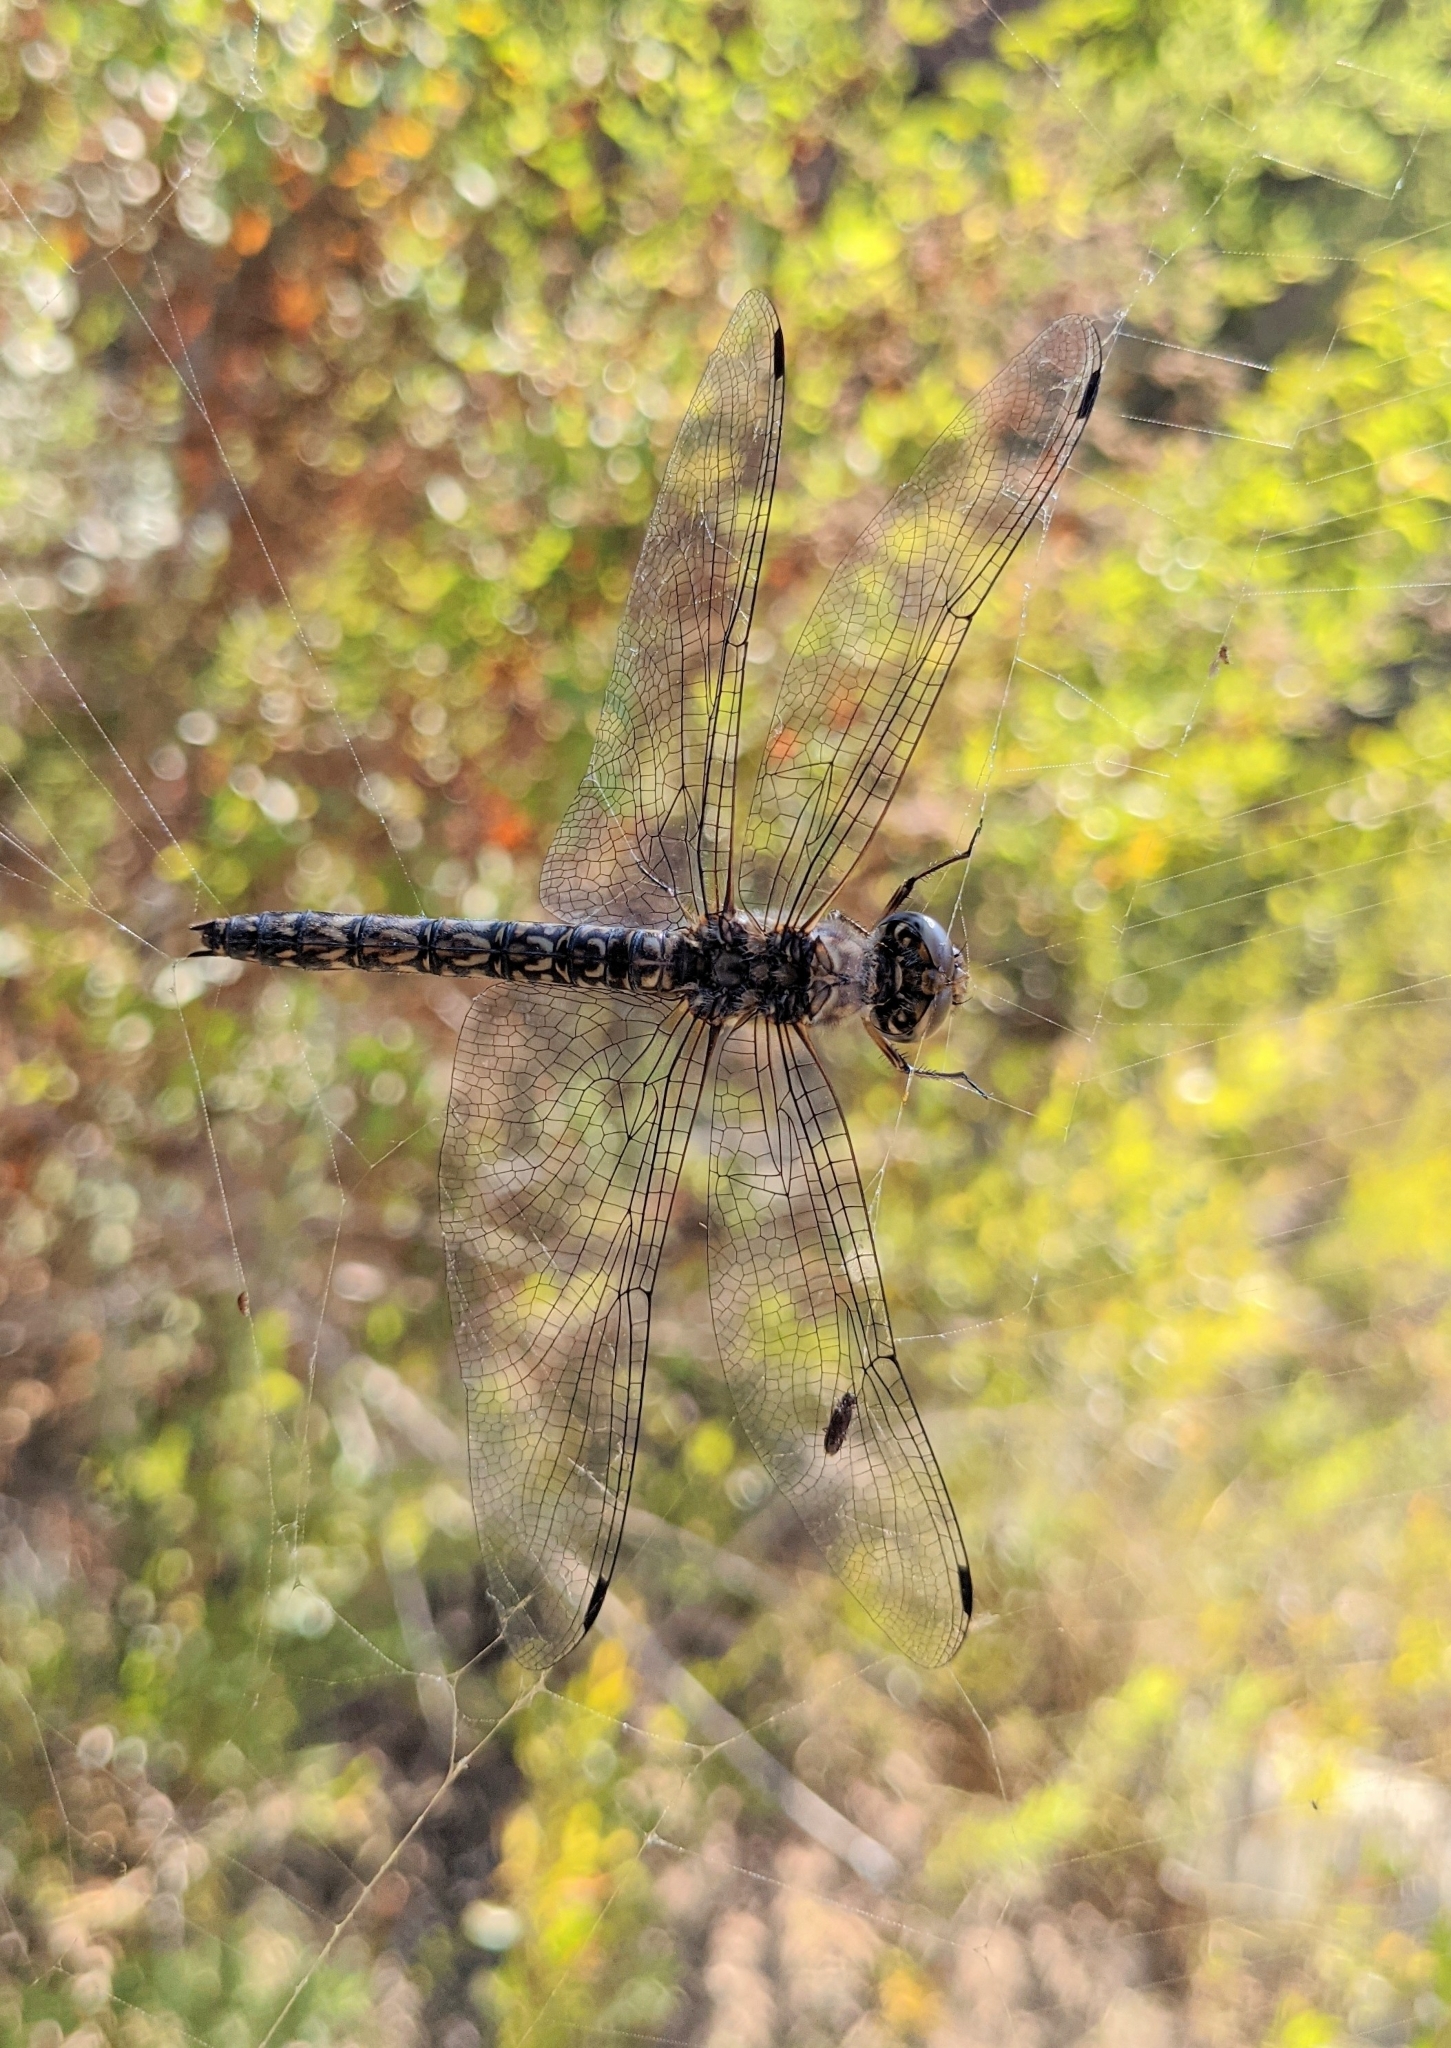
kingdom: Animalia
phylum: Arthropoda
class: Insecta
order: Odonata
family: Libellulidae
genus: Paltothemis
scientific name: Paltothemis lineatipes
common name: Red rock skimmer
